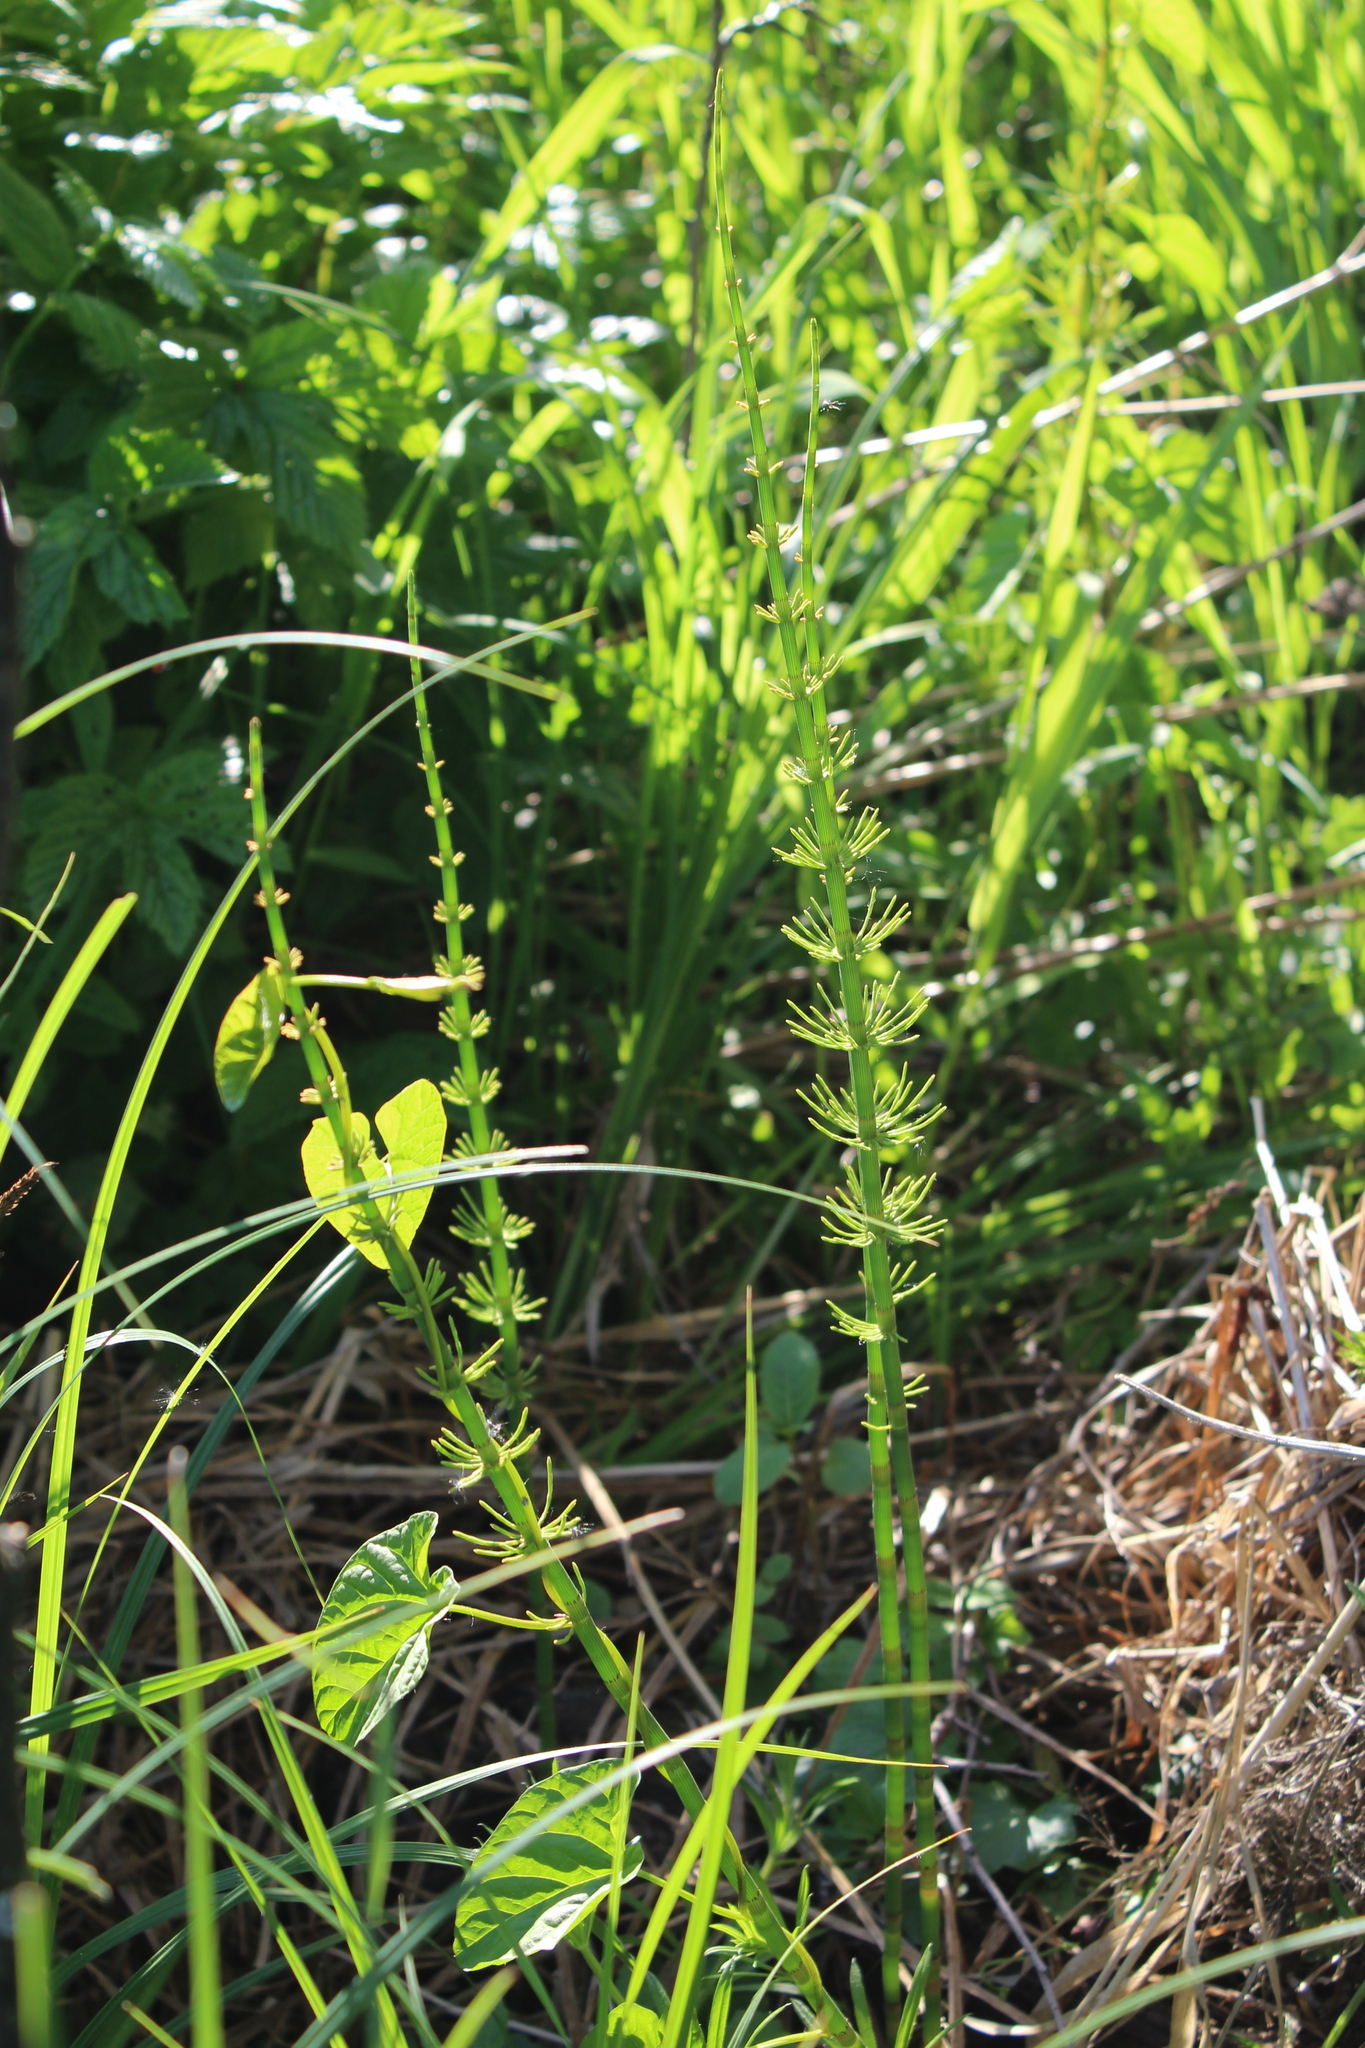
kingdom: Plantae
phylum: Tracheophyta
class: Polypodiopsida
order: Equisetales
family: Equisetaceae
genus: Equisetum
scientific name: Equisetum fluviatile
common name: Water horsetail
